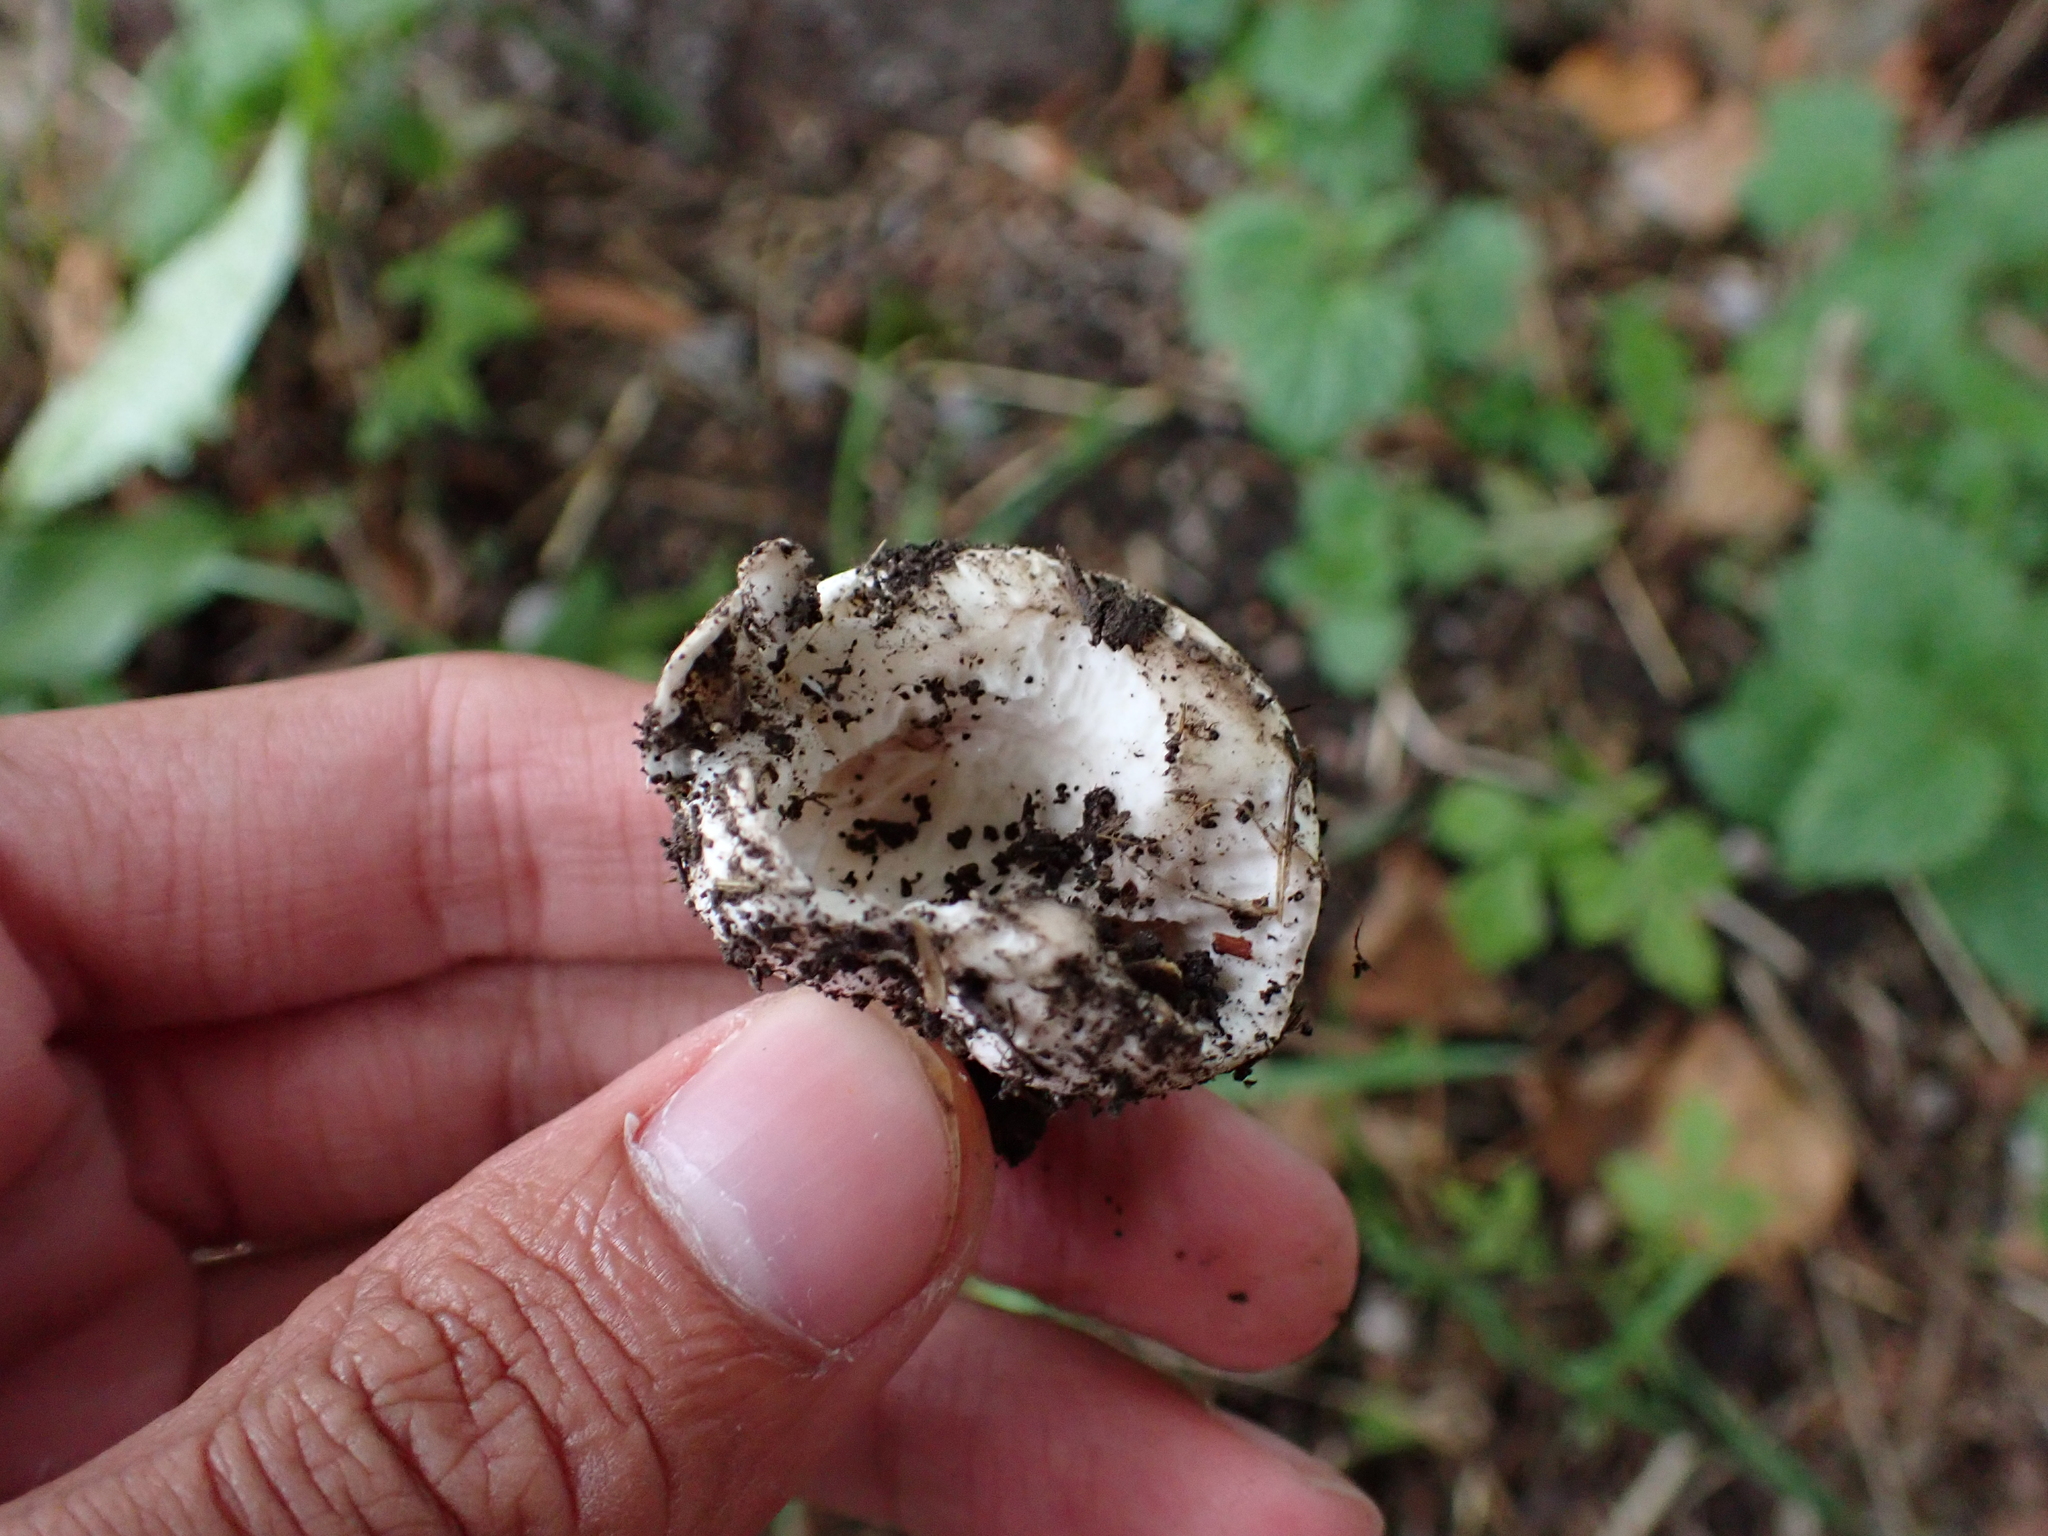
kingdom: Fungi
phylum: Basidiomycota
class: Agaricomycetes
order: Agaricales
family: Agaricaceae
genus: Agaricus
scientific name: Agaricus bitorquis
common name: Pavement mushroom
